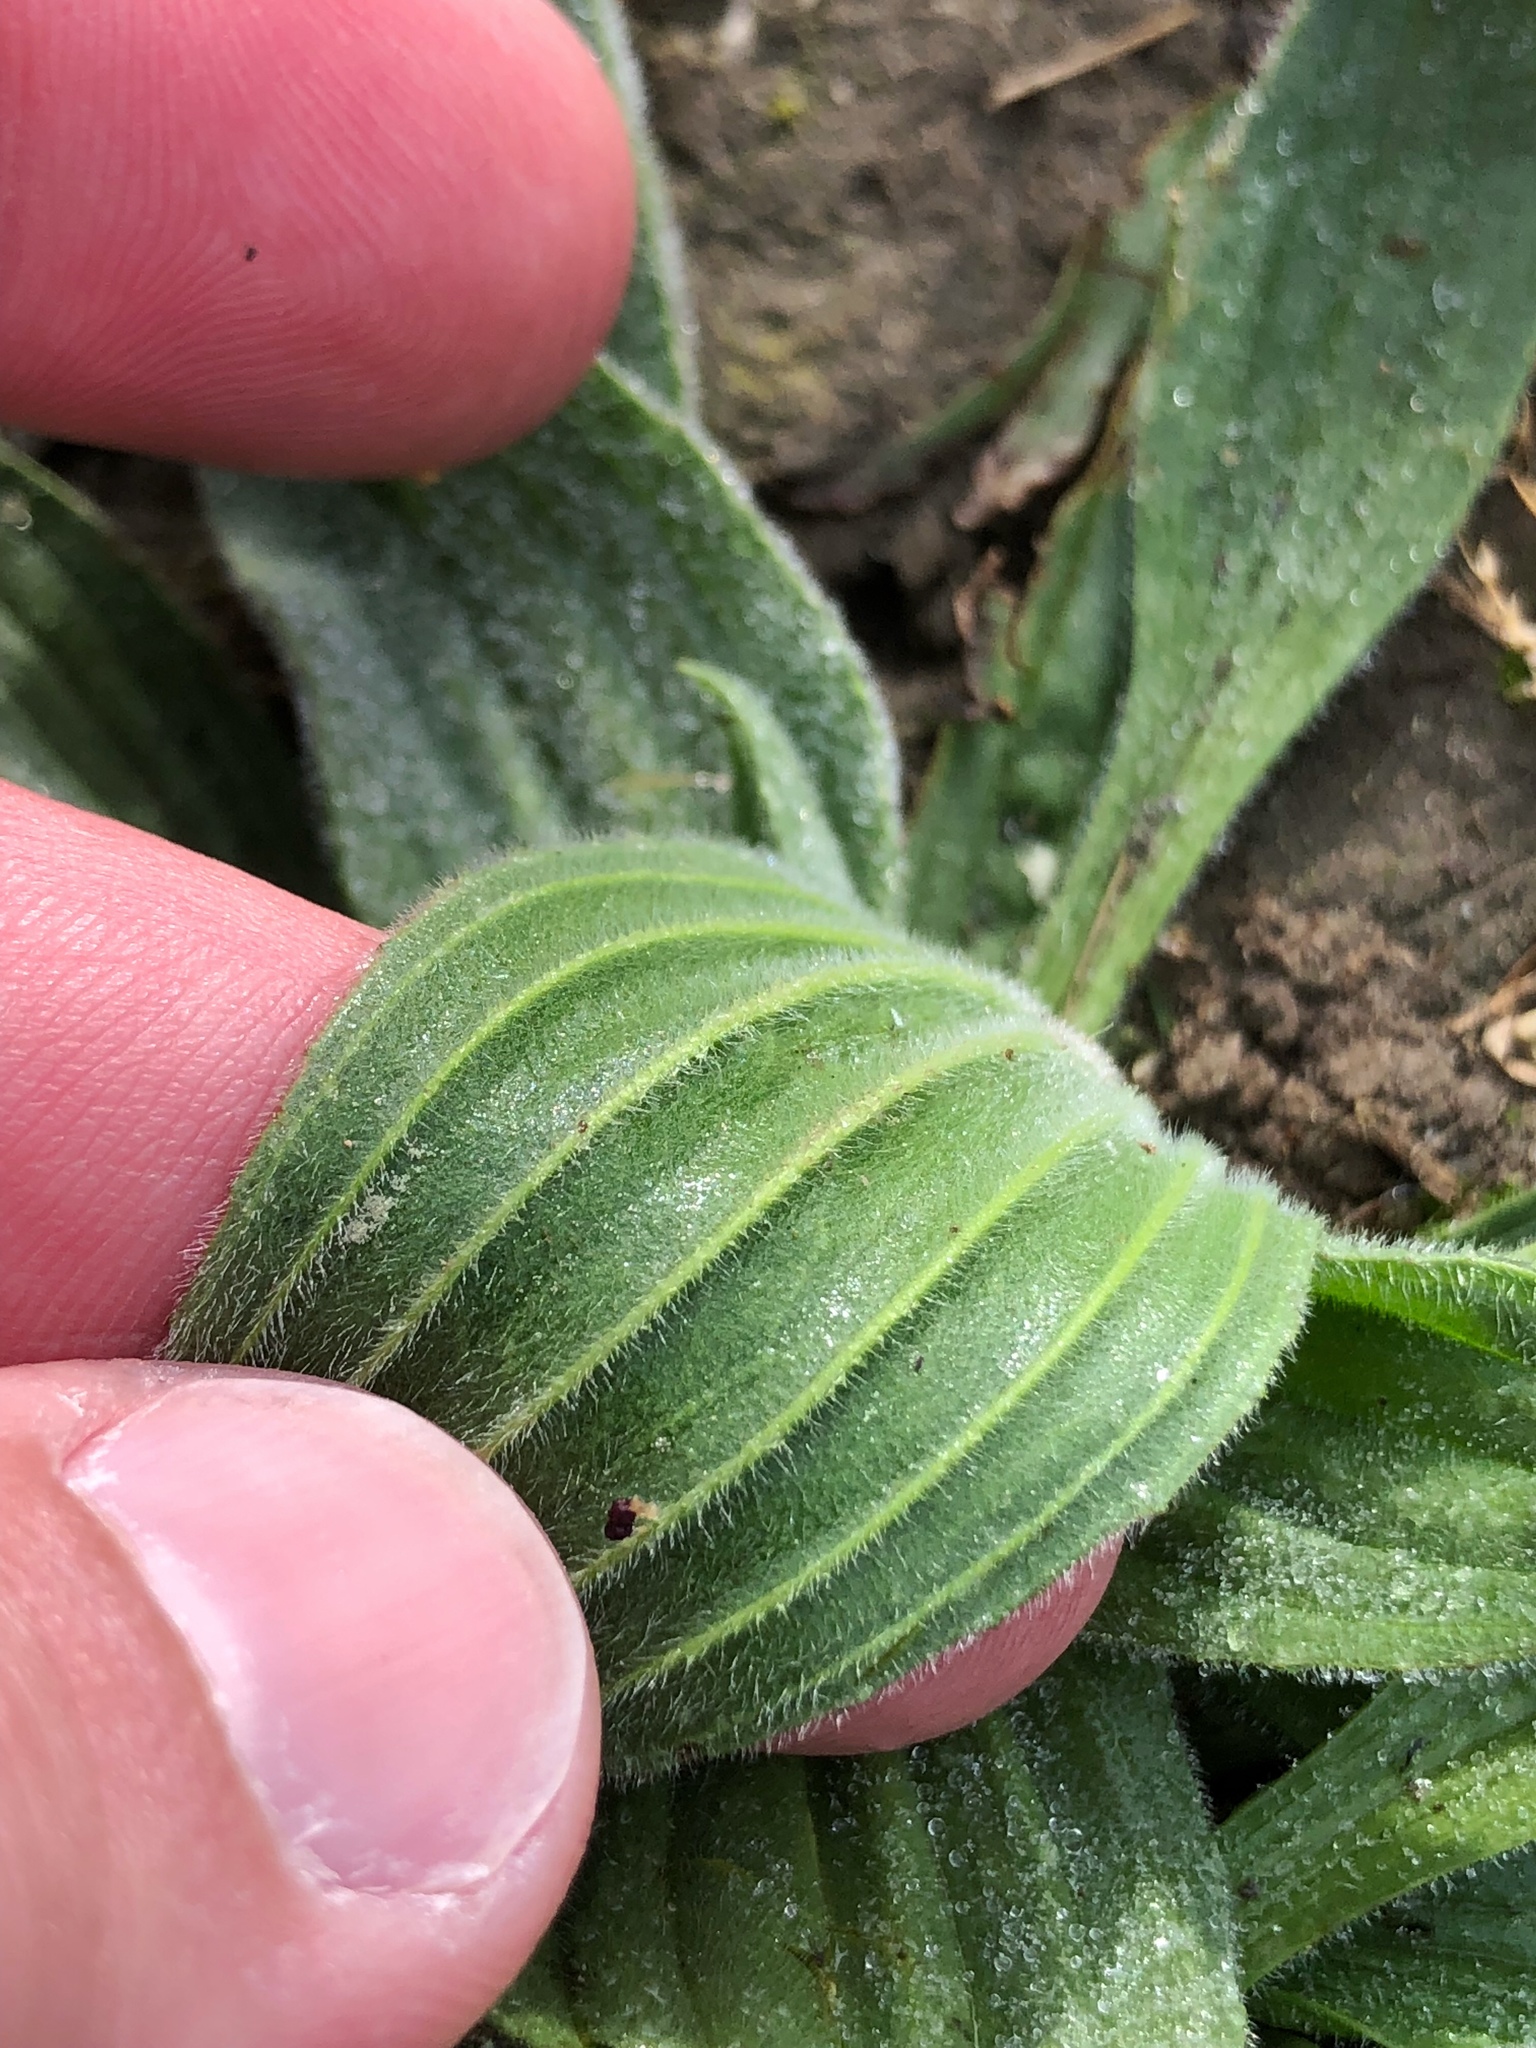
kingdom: Plantae
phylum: Tracheophyta
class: Magnoliopsida
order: Lamiales
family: Plantaginaceae
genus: Plantago
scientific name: Plantago lanceolata
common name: Ribwort plantain
